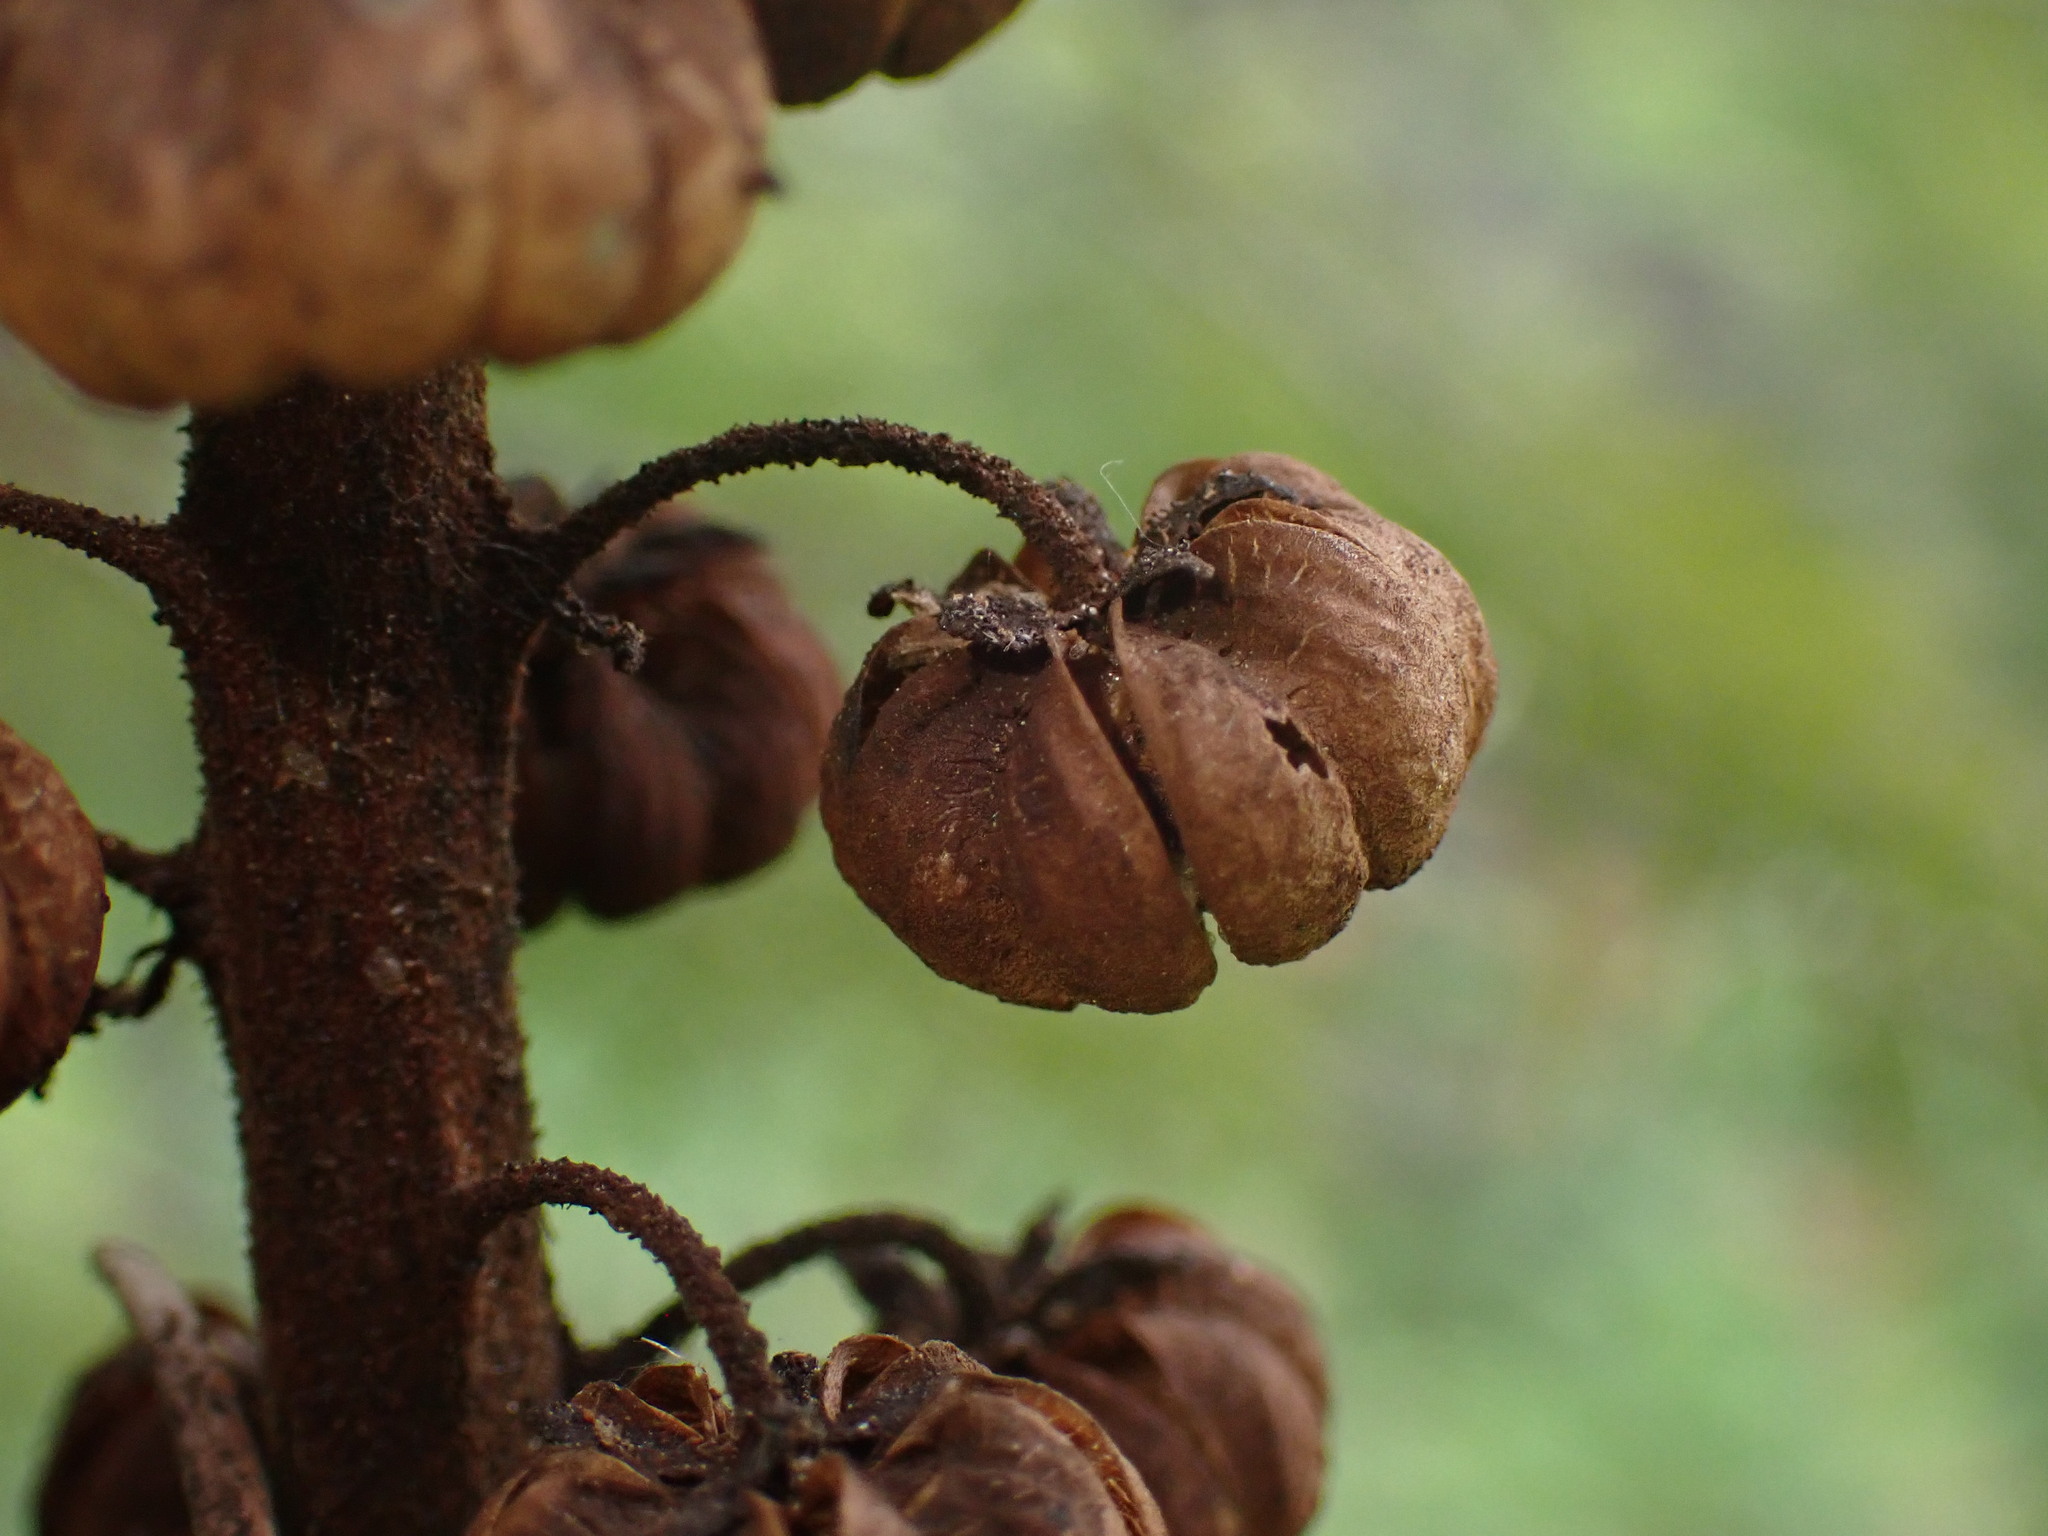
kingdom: Plantae
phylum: Tracheophyta
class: Magnoliopsida
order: Ericales
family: Ericaceae
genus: Pterospora
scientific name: Pterospora andromedea
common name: Giant bird's-nest
